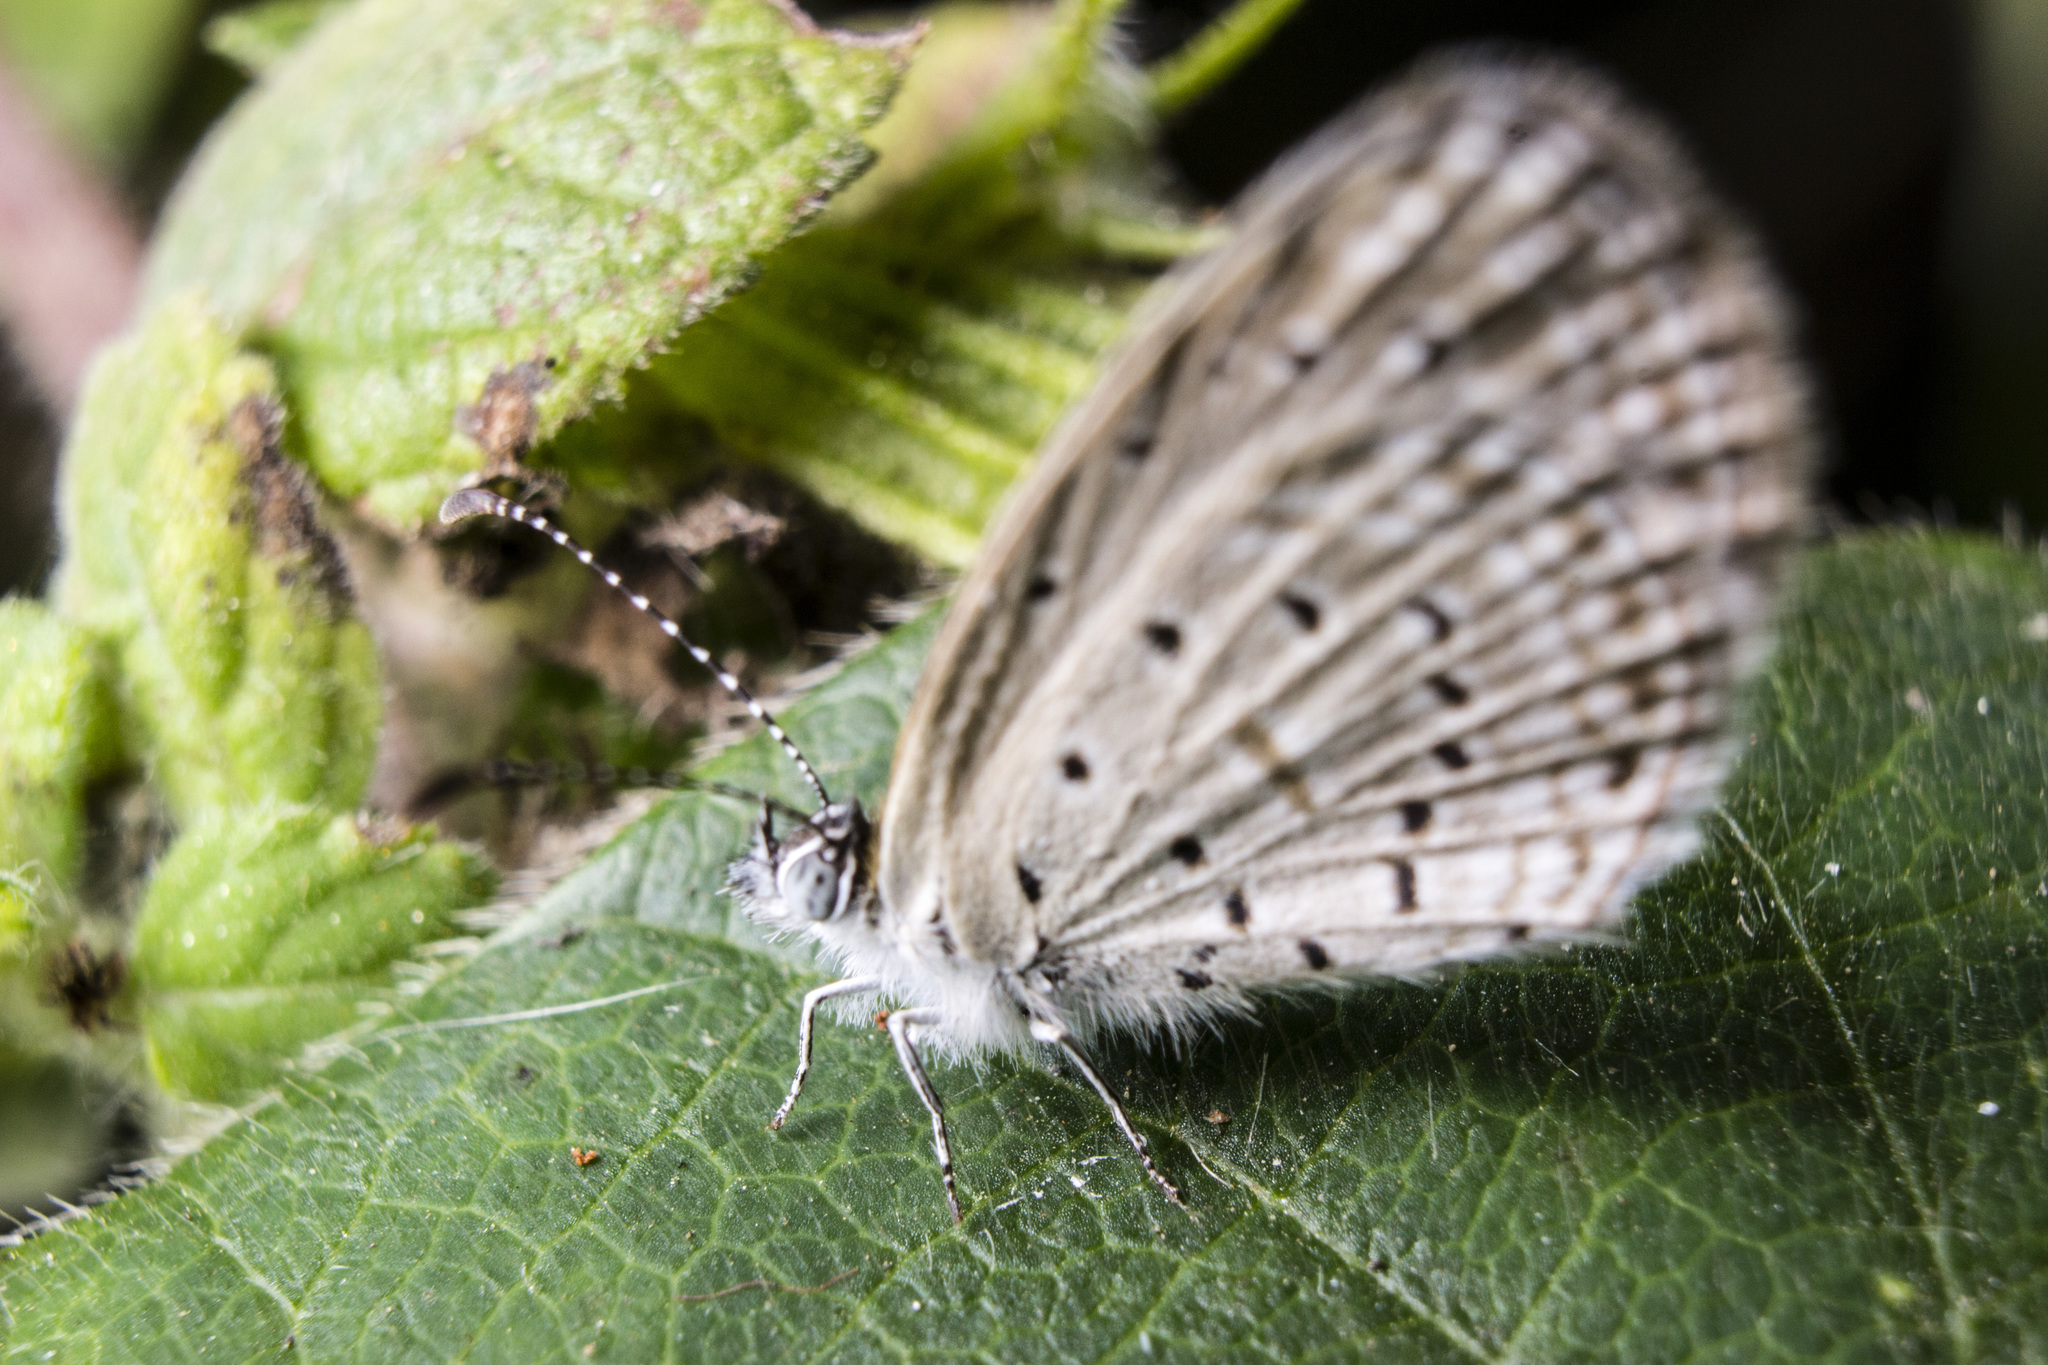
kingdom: Animalia
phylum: Arthropoda
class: Insecta
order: Lepidoptera
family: Lycaenidae
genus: Zizula
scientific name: Zizula hylax
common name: Gaika blue
